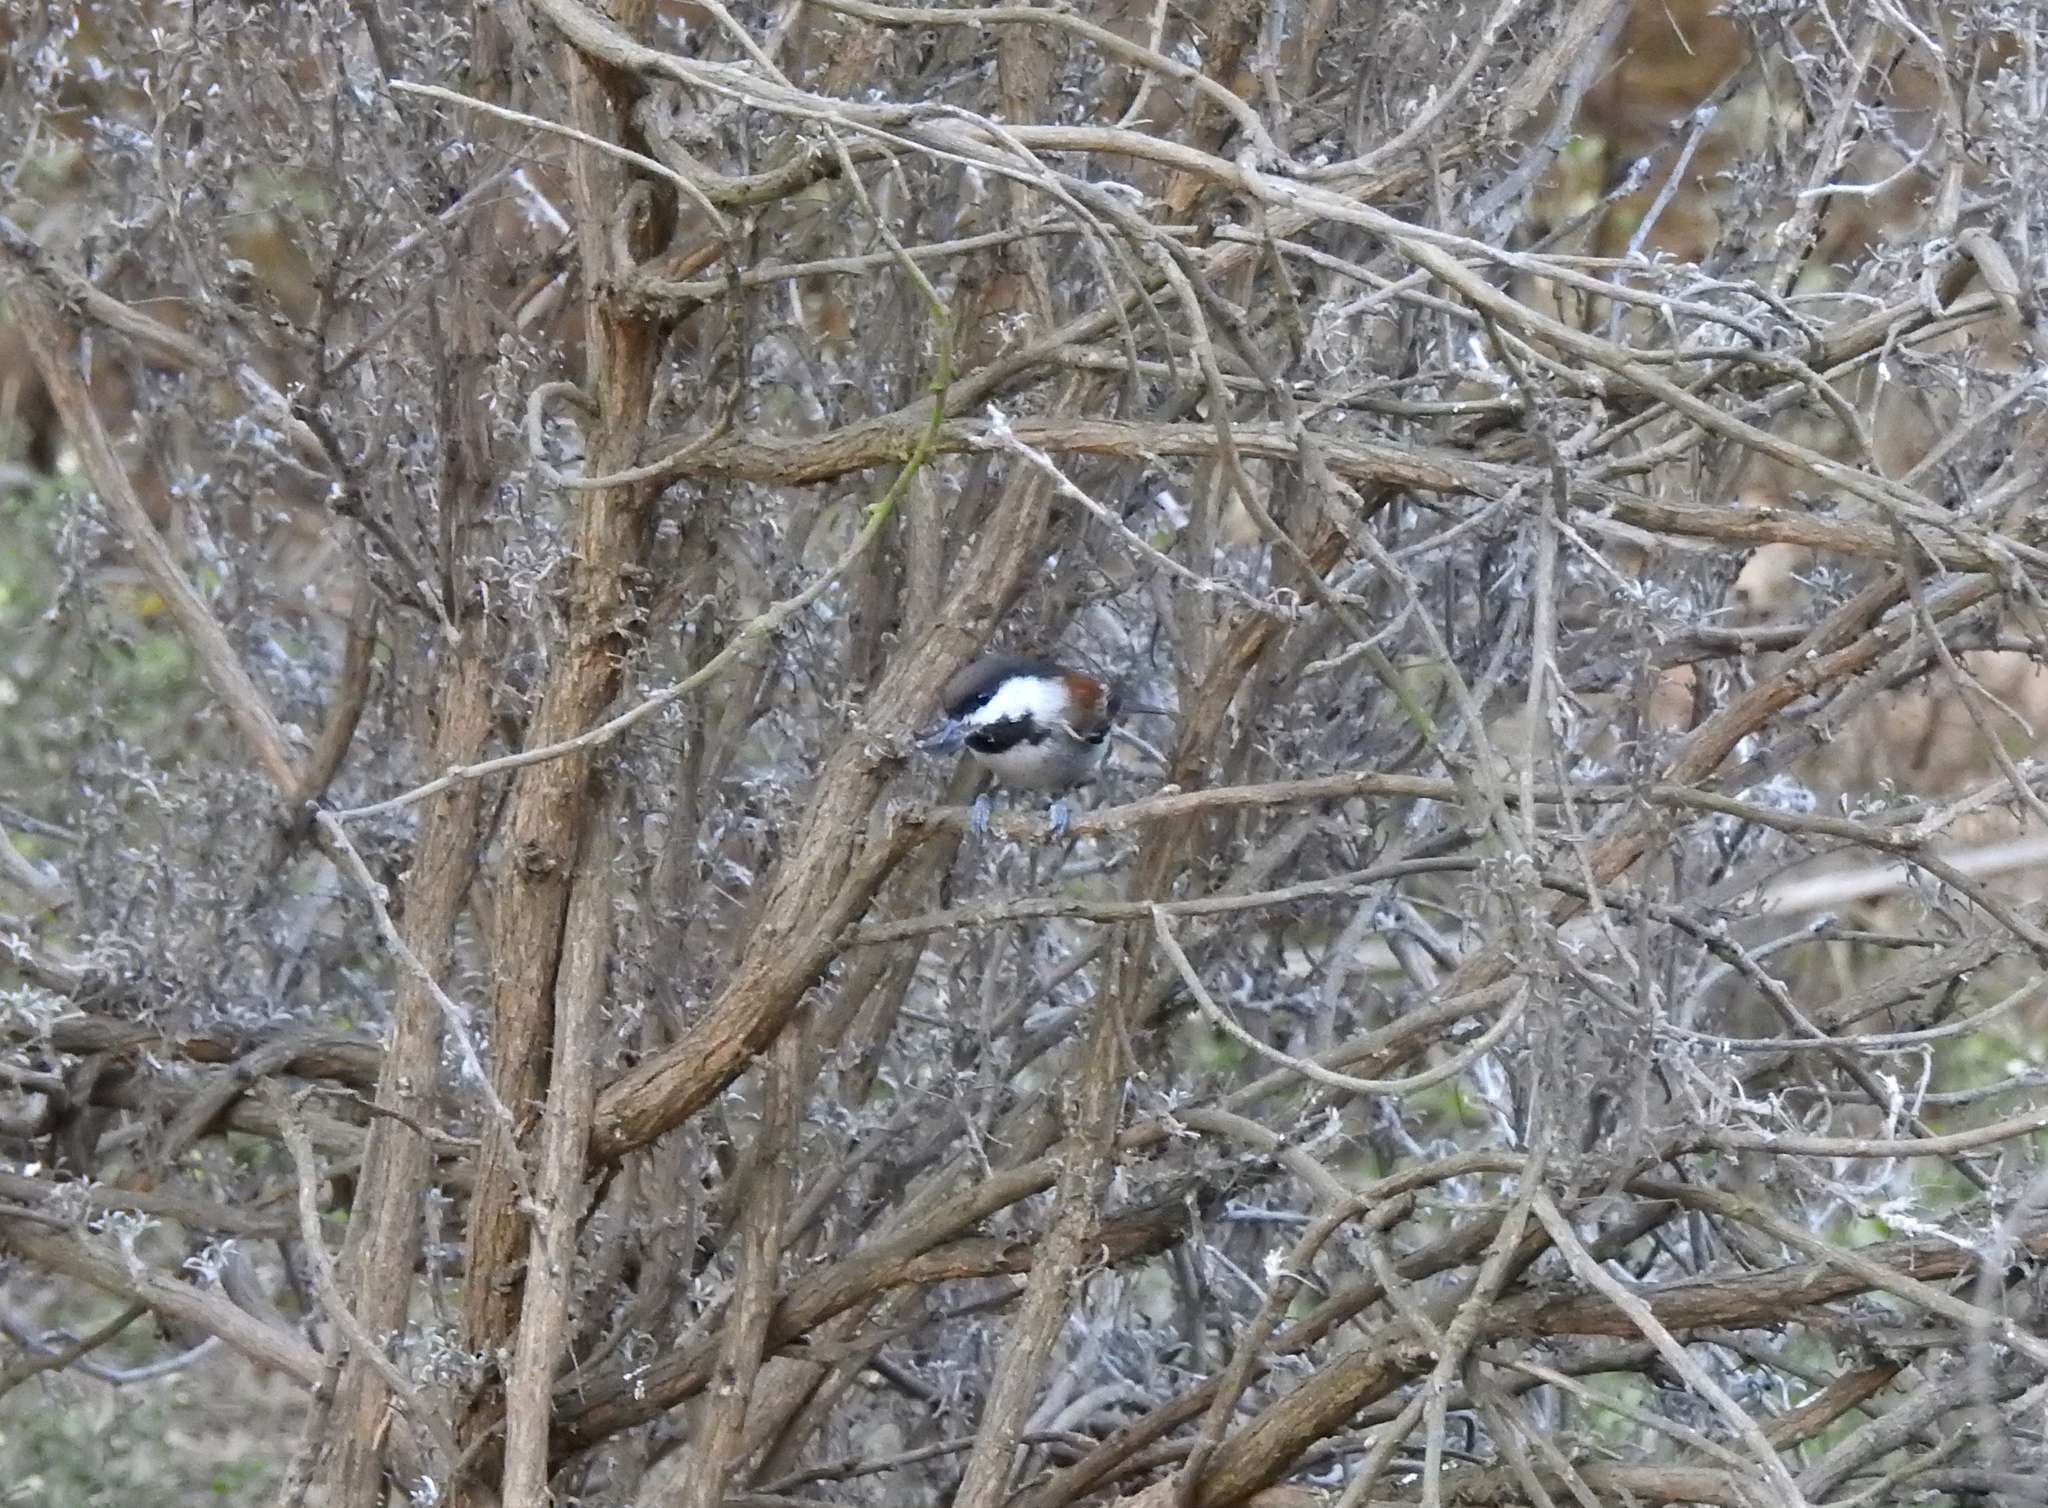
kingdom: Animalia
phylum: Chordata
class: Aves
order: Passeriformes
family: Paridae
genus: Poecile
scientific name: Poecile rufescens
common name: Chestnut-backed chickadee
